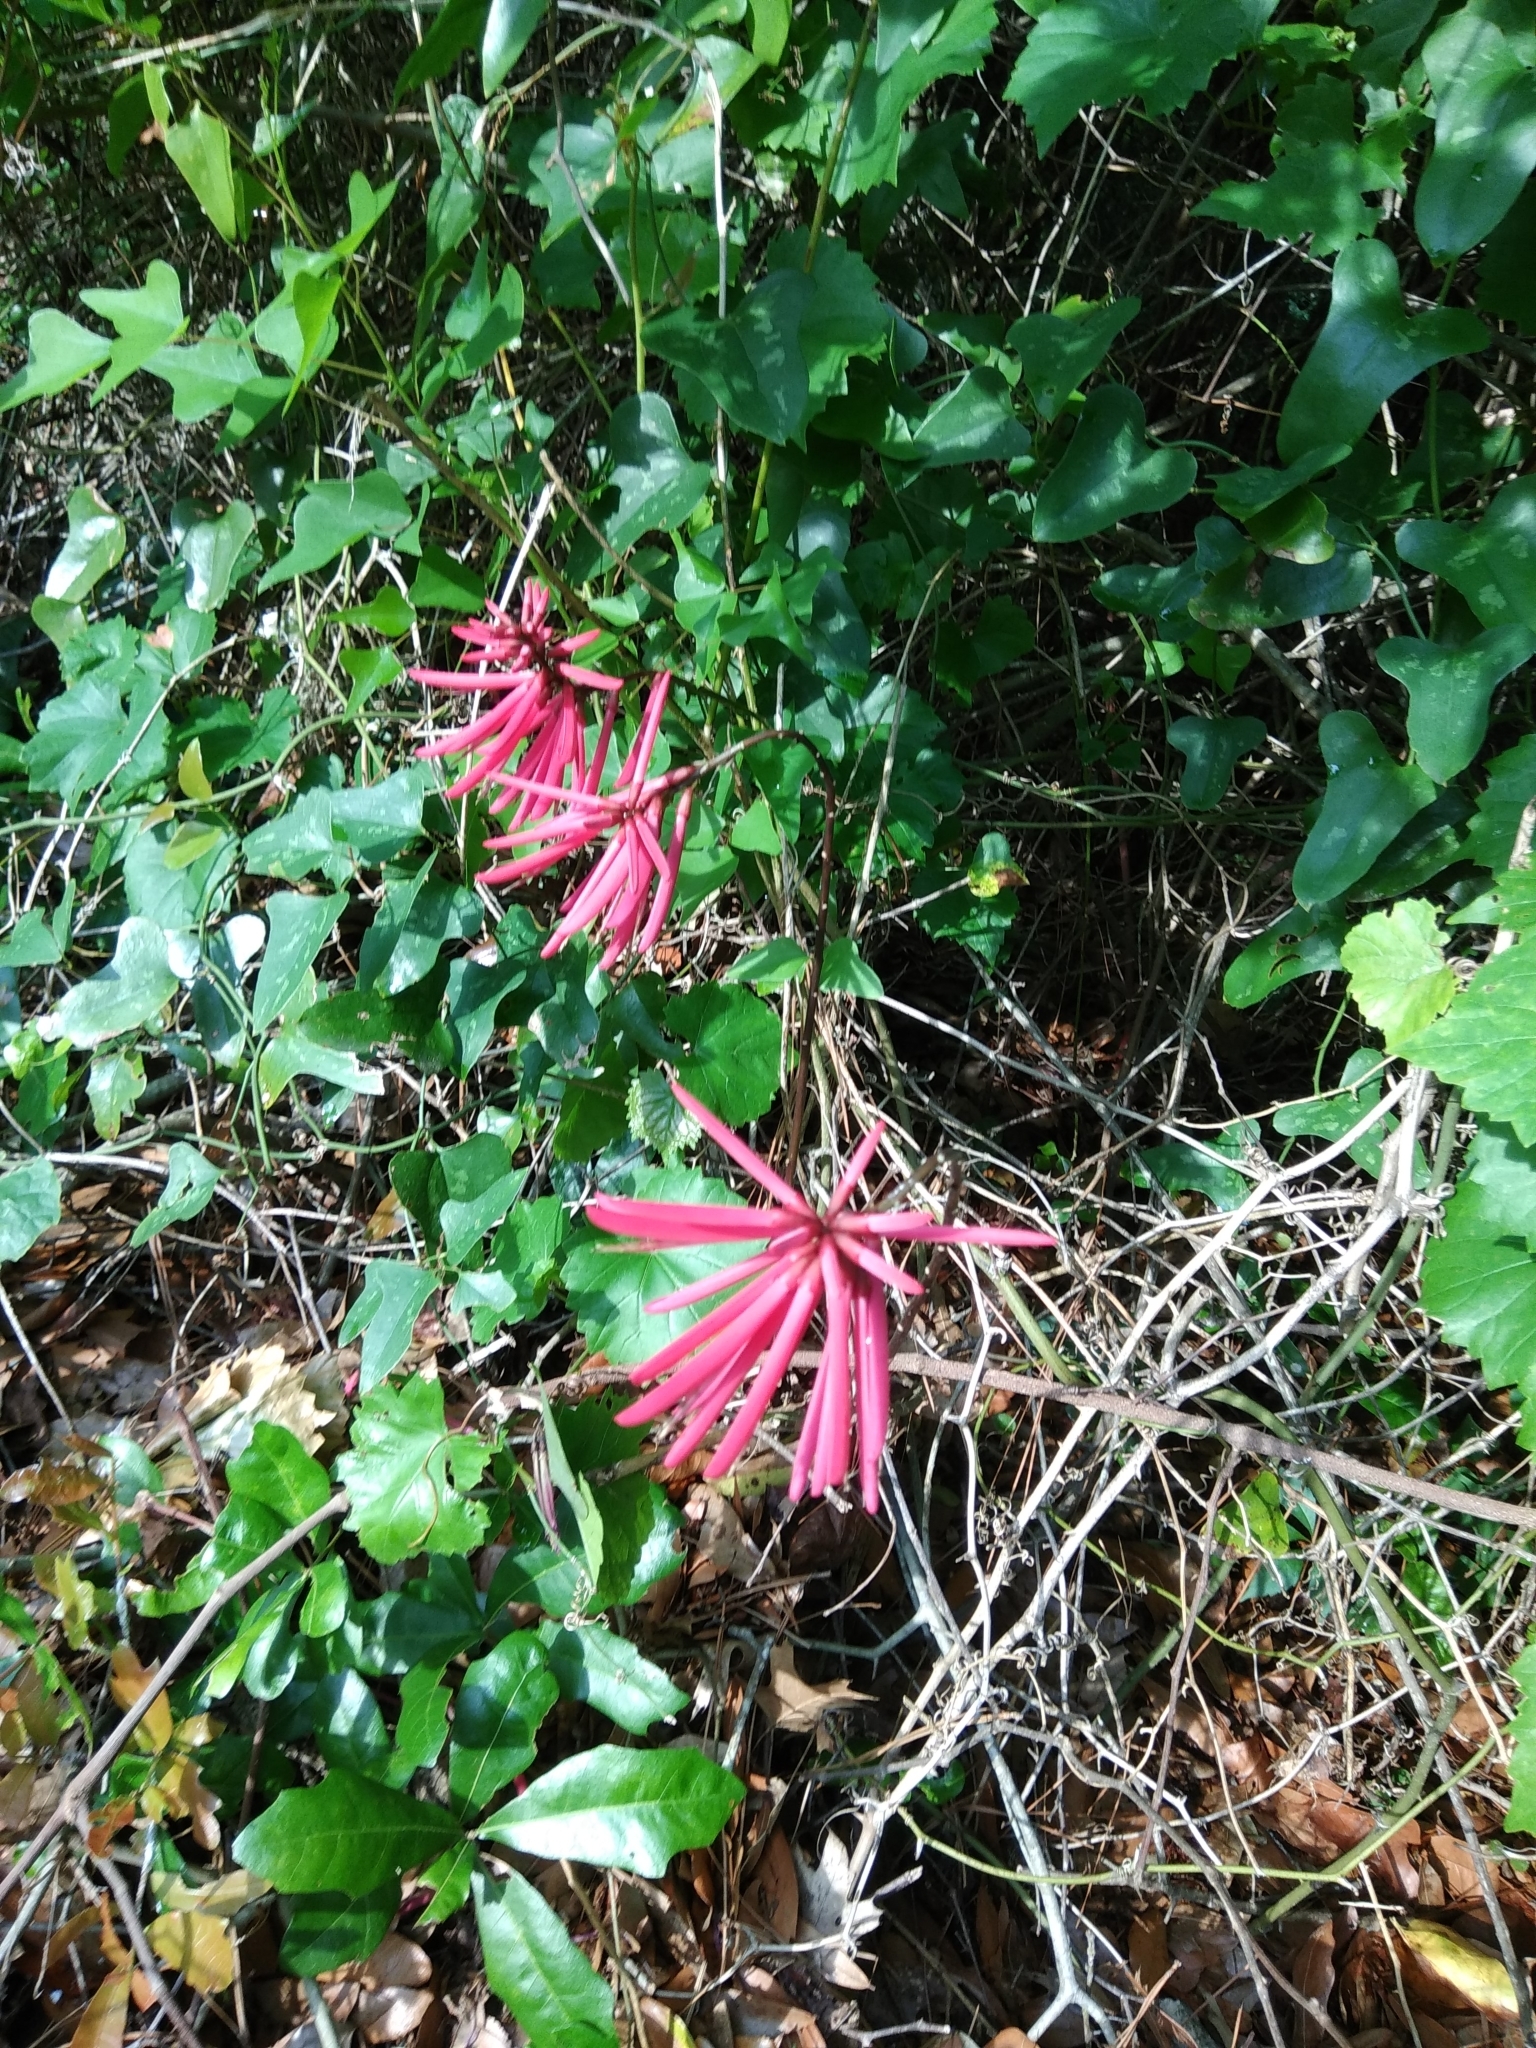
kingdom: Plantae
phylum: Tracheophyta
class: Magnoliopsida
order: Fabales
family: Fabaceae
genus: Erythrina
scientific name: Erythrina herbacea
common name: Coral-bean
